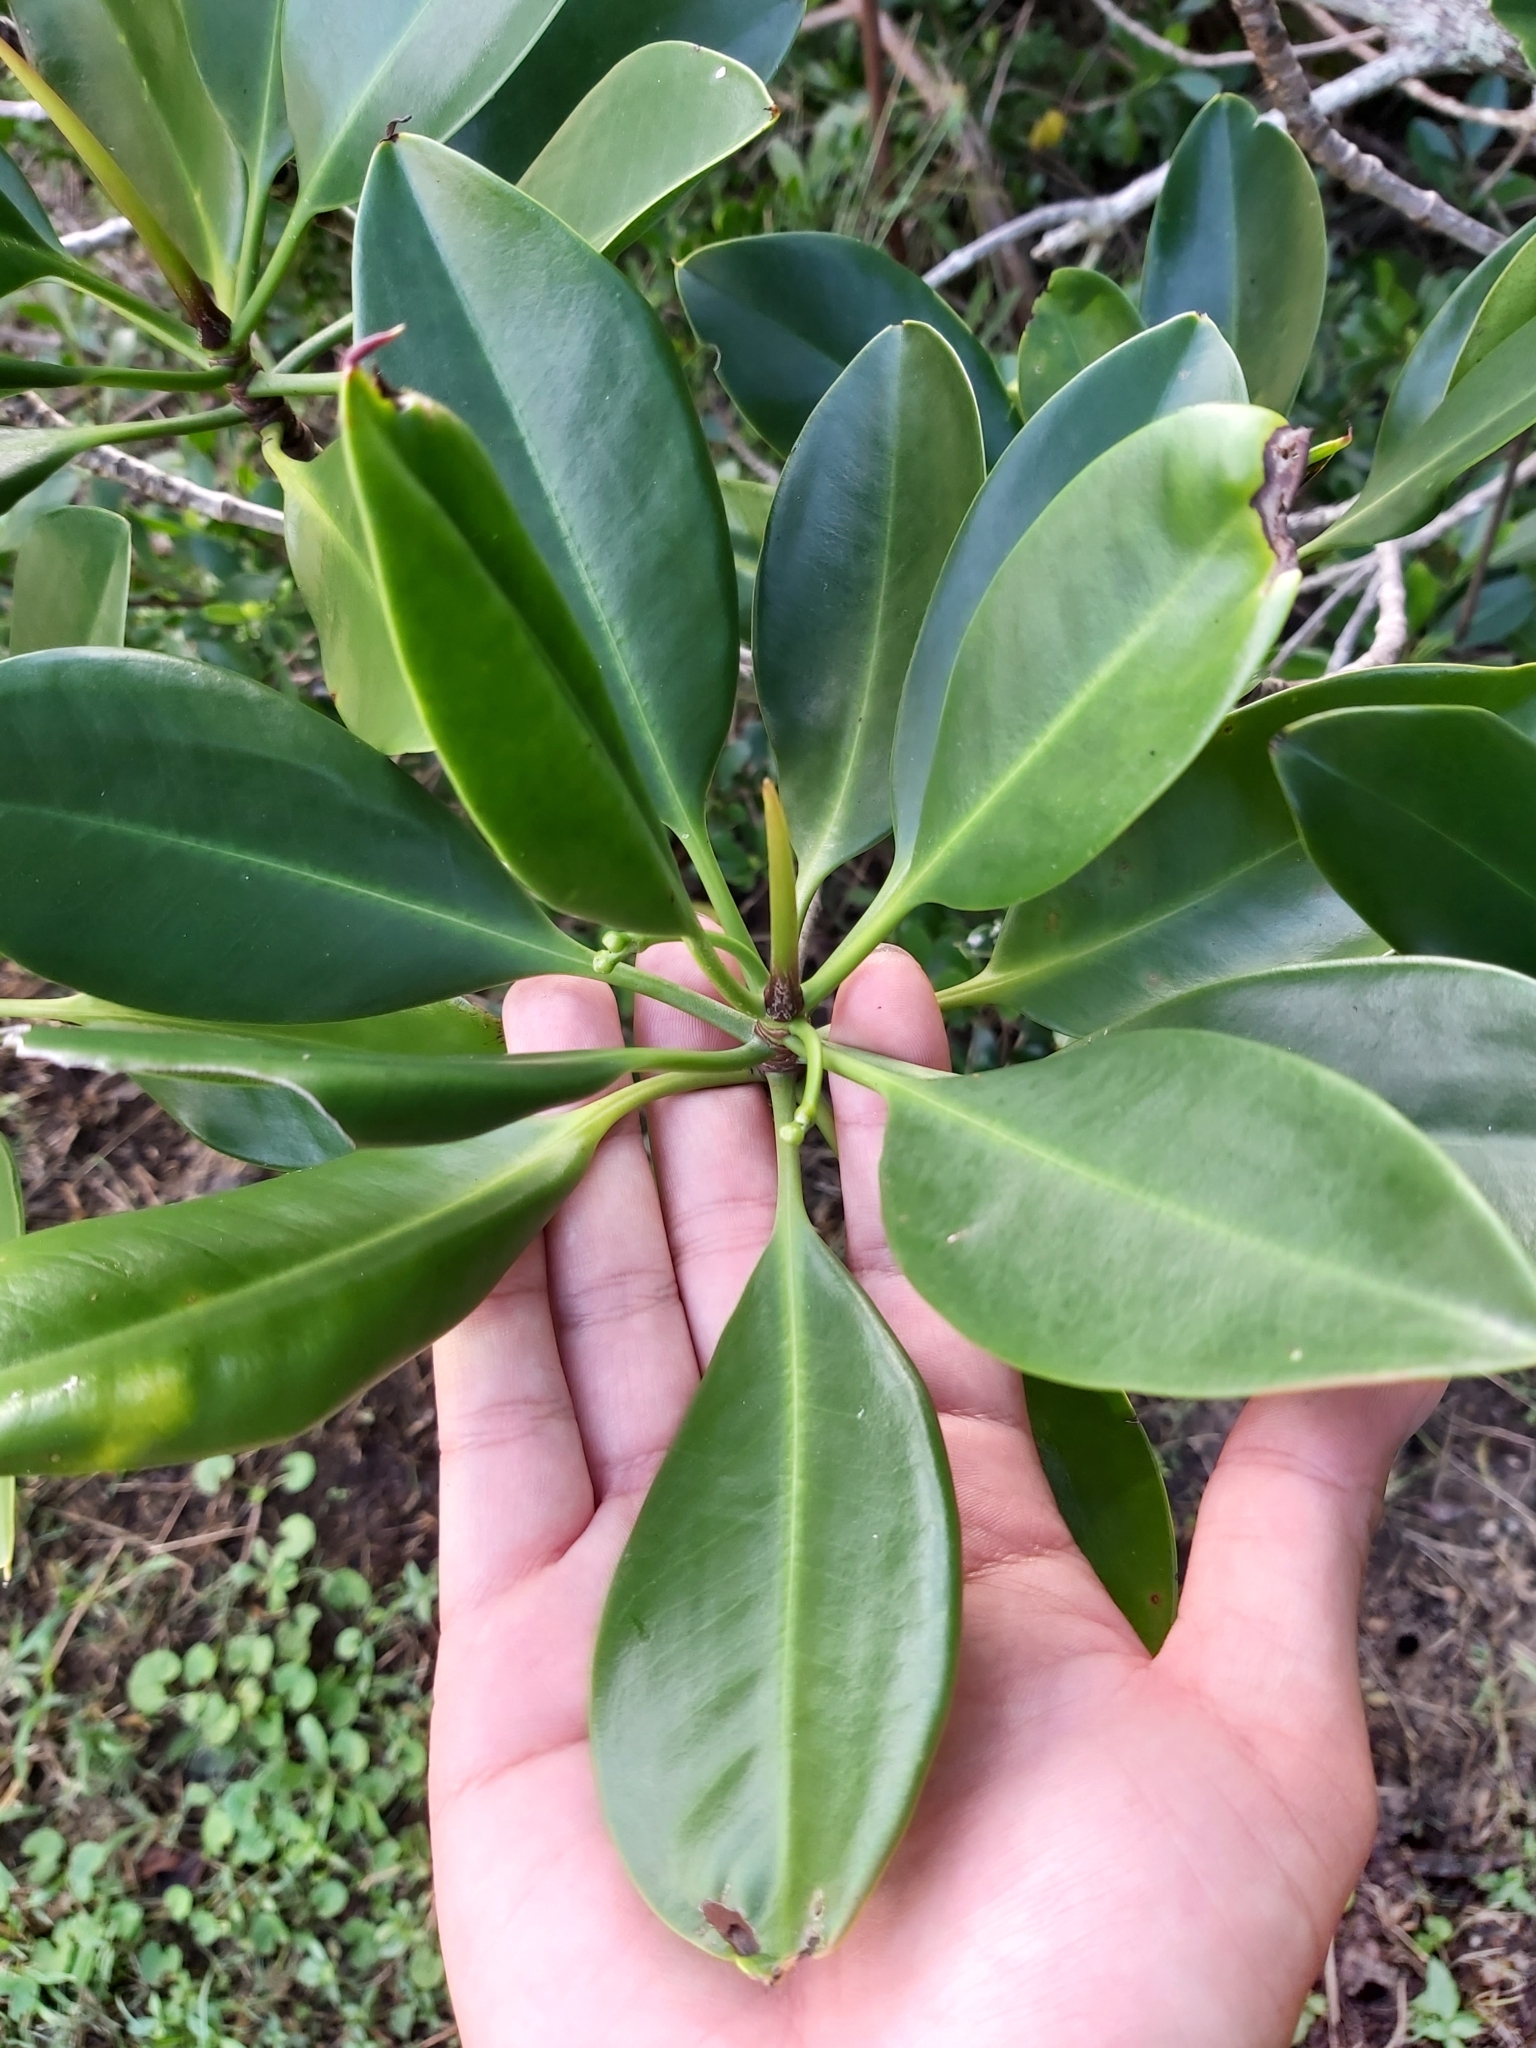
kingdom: Plantae
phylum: Tracheophyta
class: Magnoliopsida
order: Malpighiales
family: Rhizophoraceae
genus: Rhizophora
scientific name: Rhizophora stylosa
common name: Red mangrove
